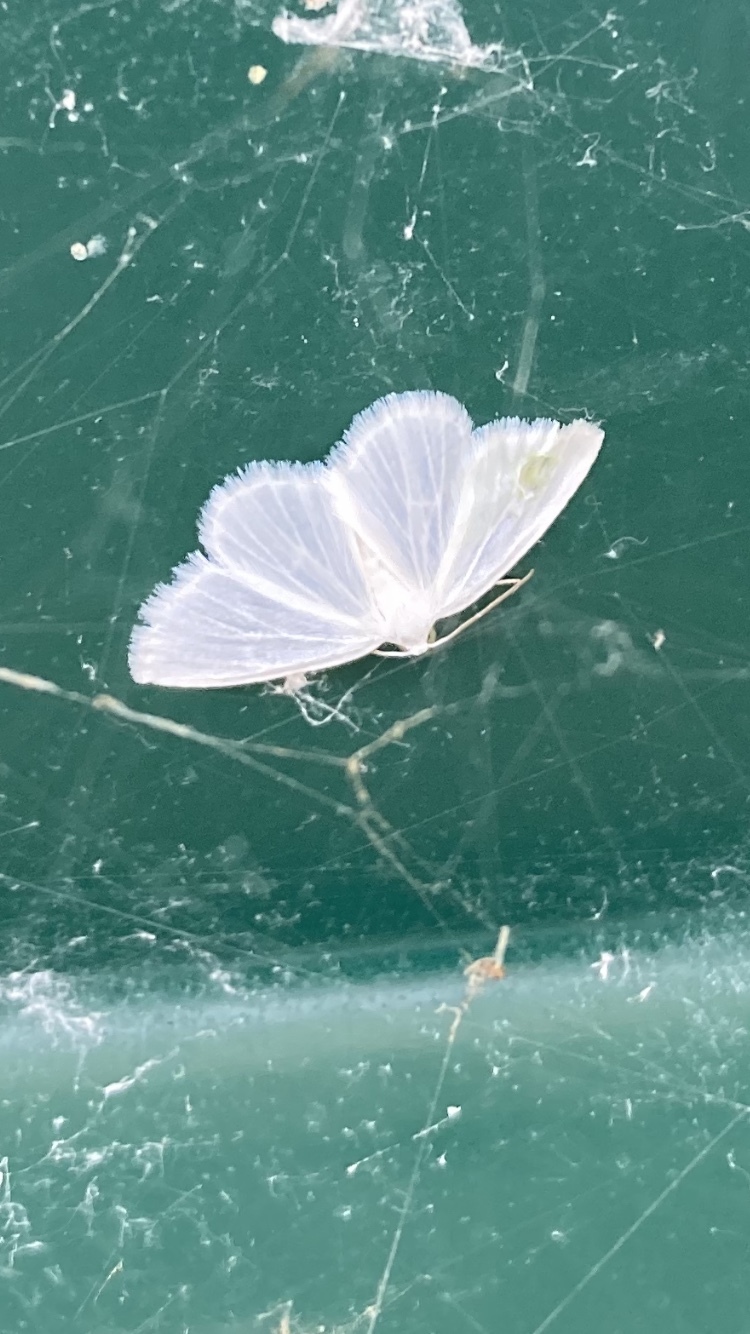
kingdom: Animalia
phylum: Arthropoda
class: Insecta
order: Lepidoptera
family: Geometridae
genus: Lomographa
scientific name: Lomographa vestaliata
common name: White spring moth
